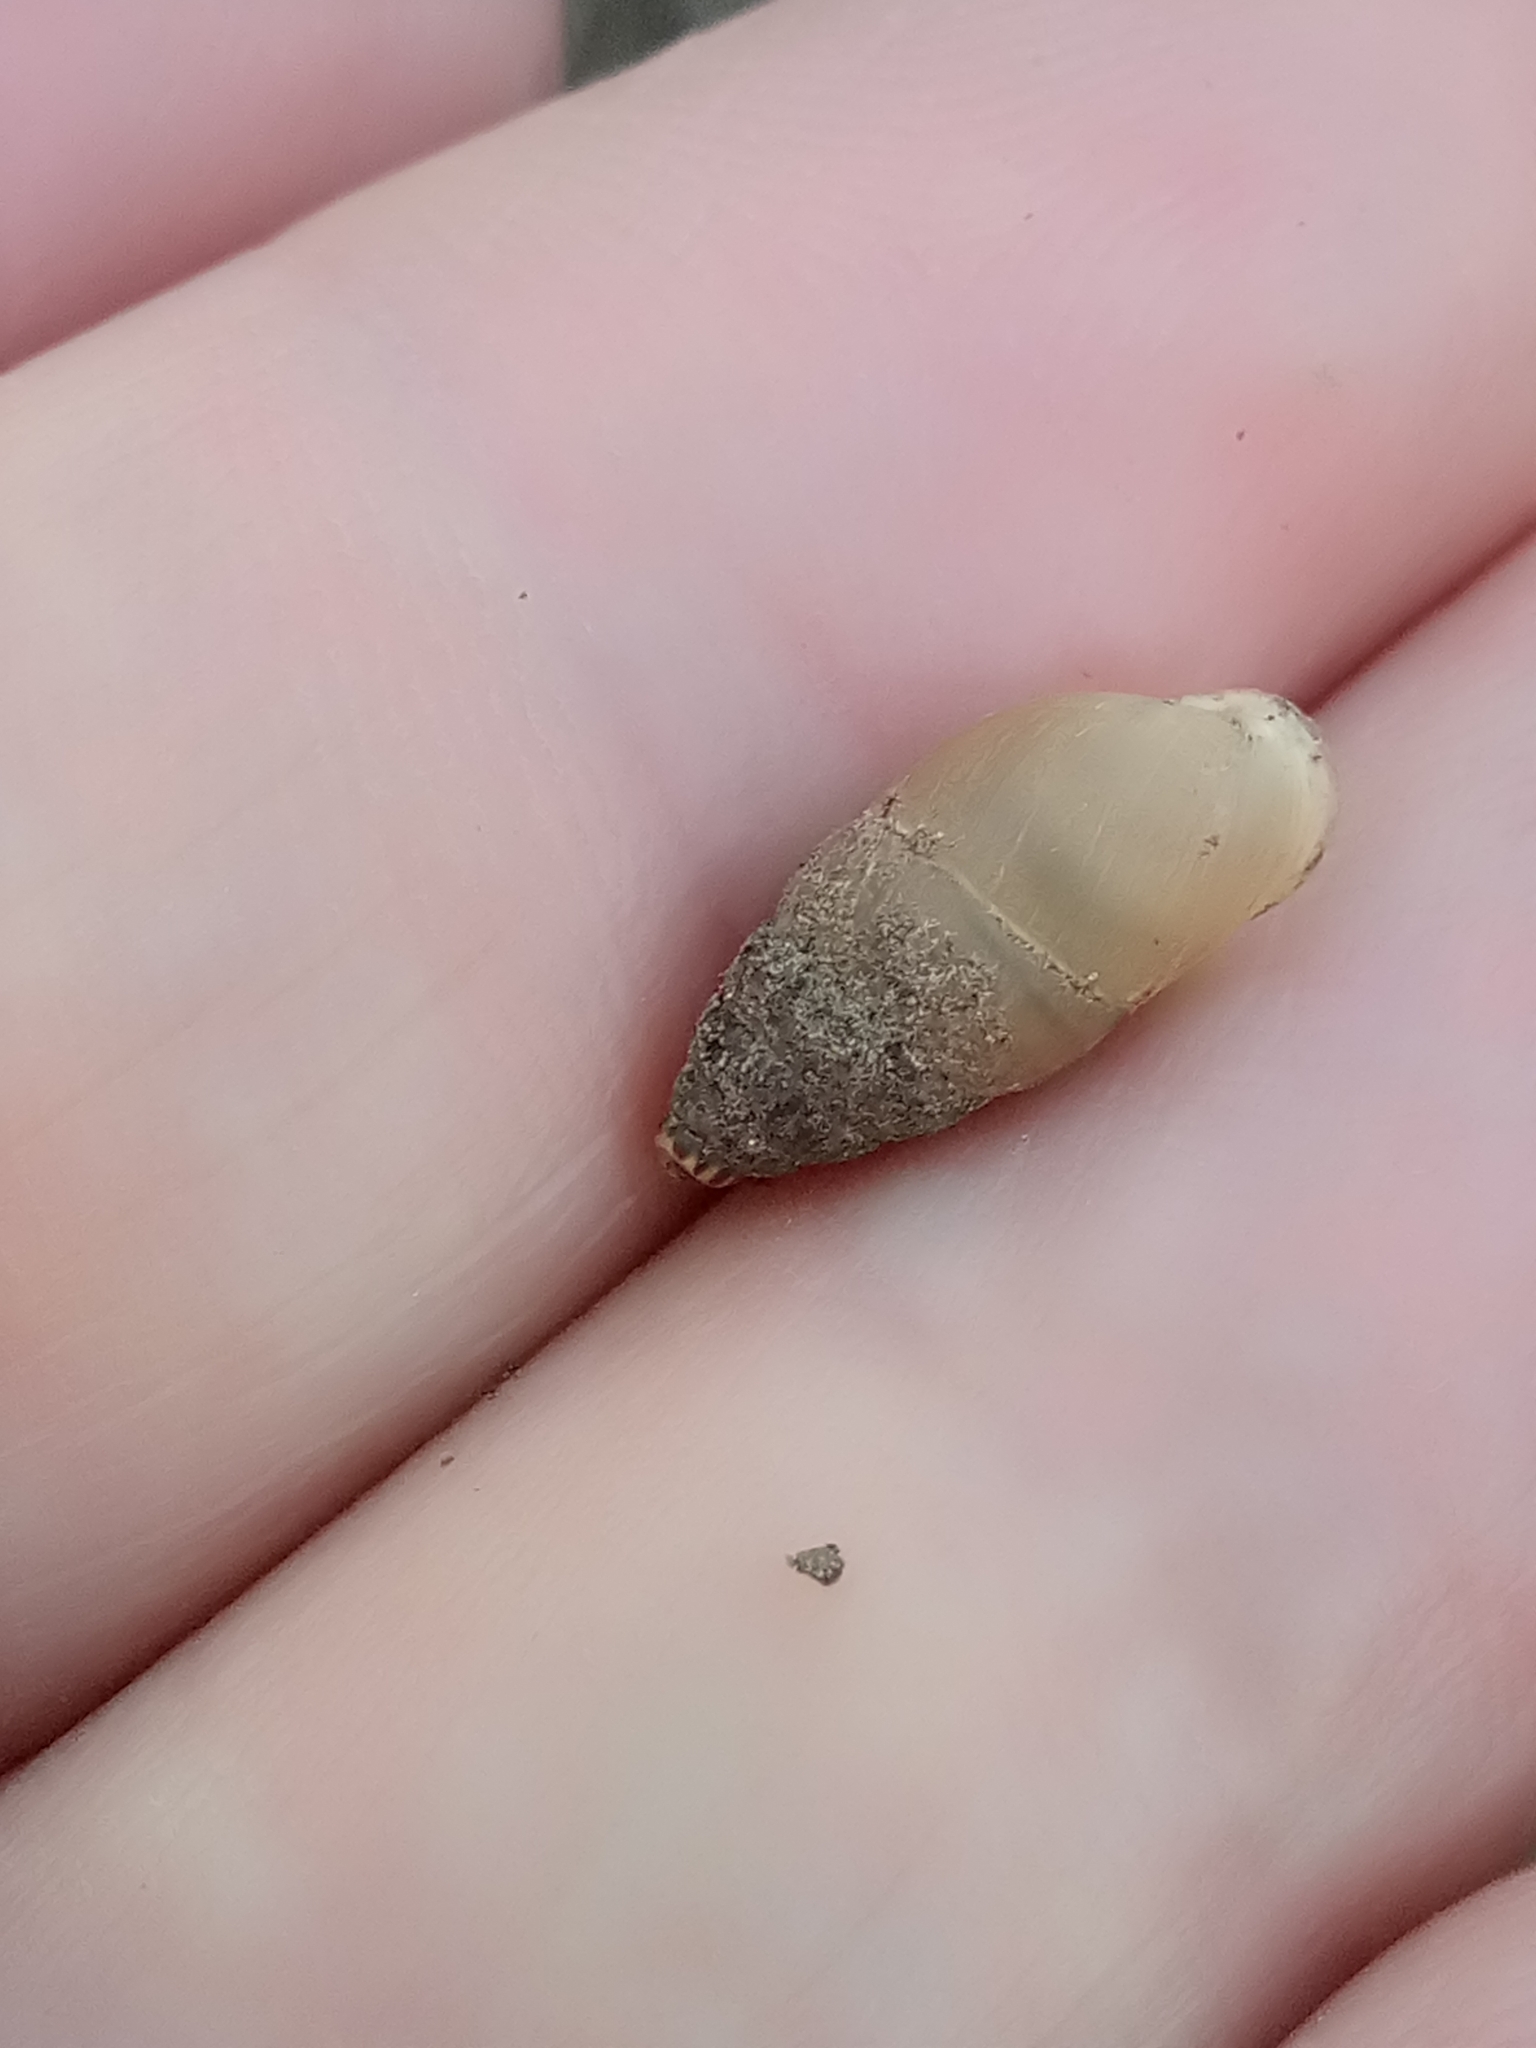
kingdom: Animalia
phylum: Mollusca
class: Gastropoda
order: Stylommatophora
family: Enidae
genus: Mastus
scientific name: Mastus pupa
